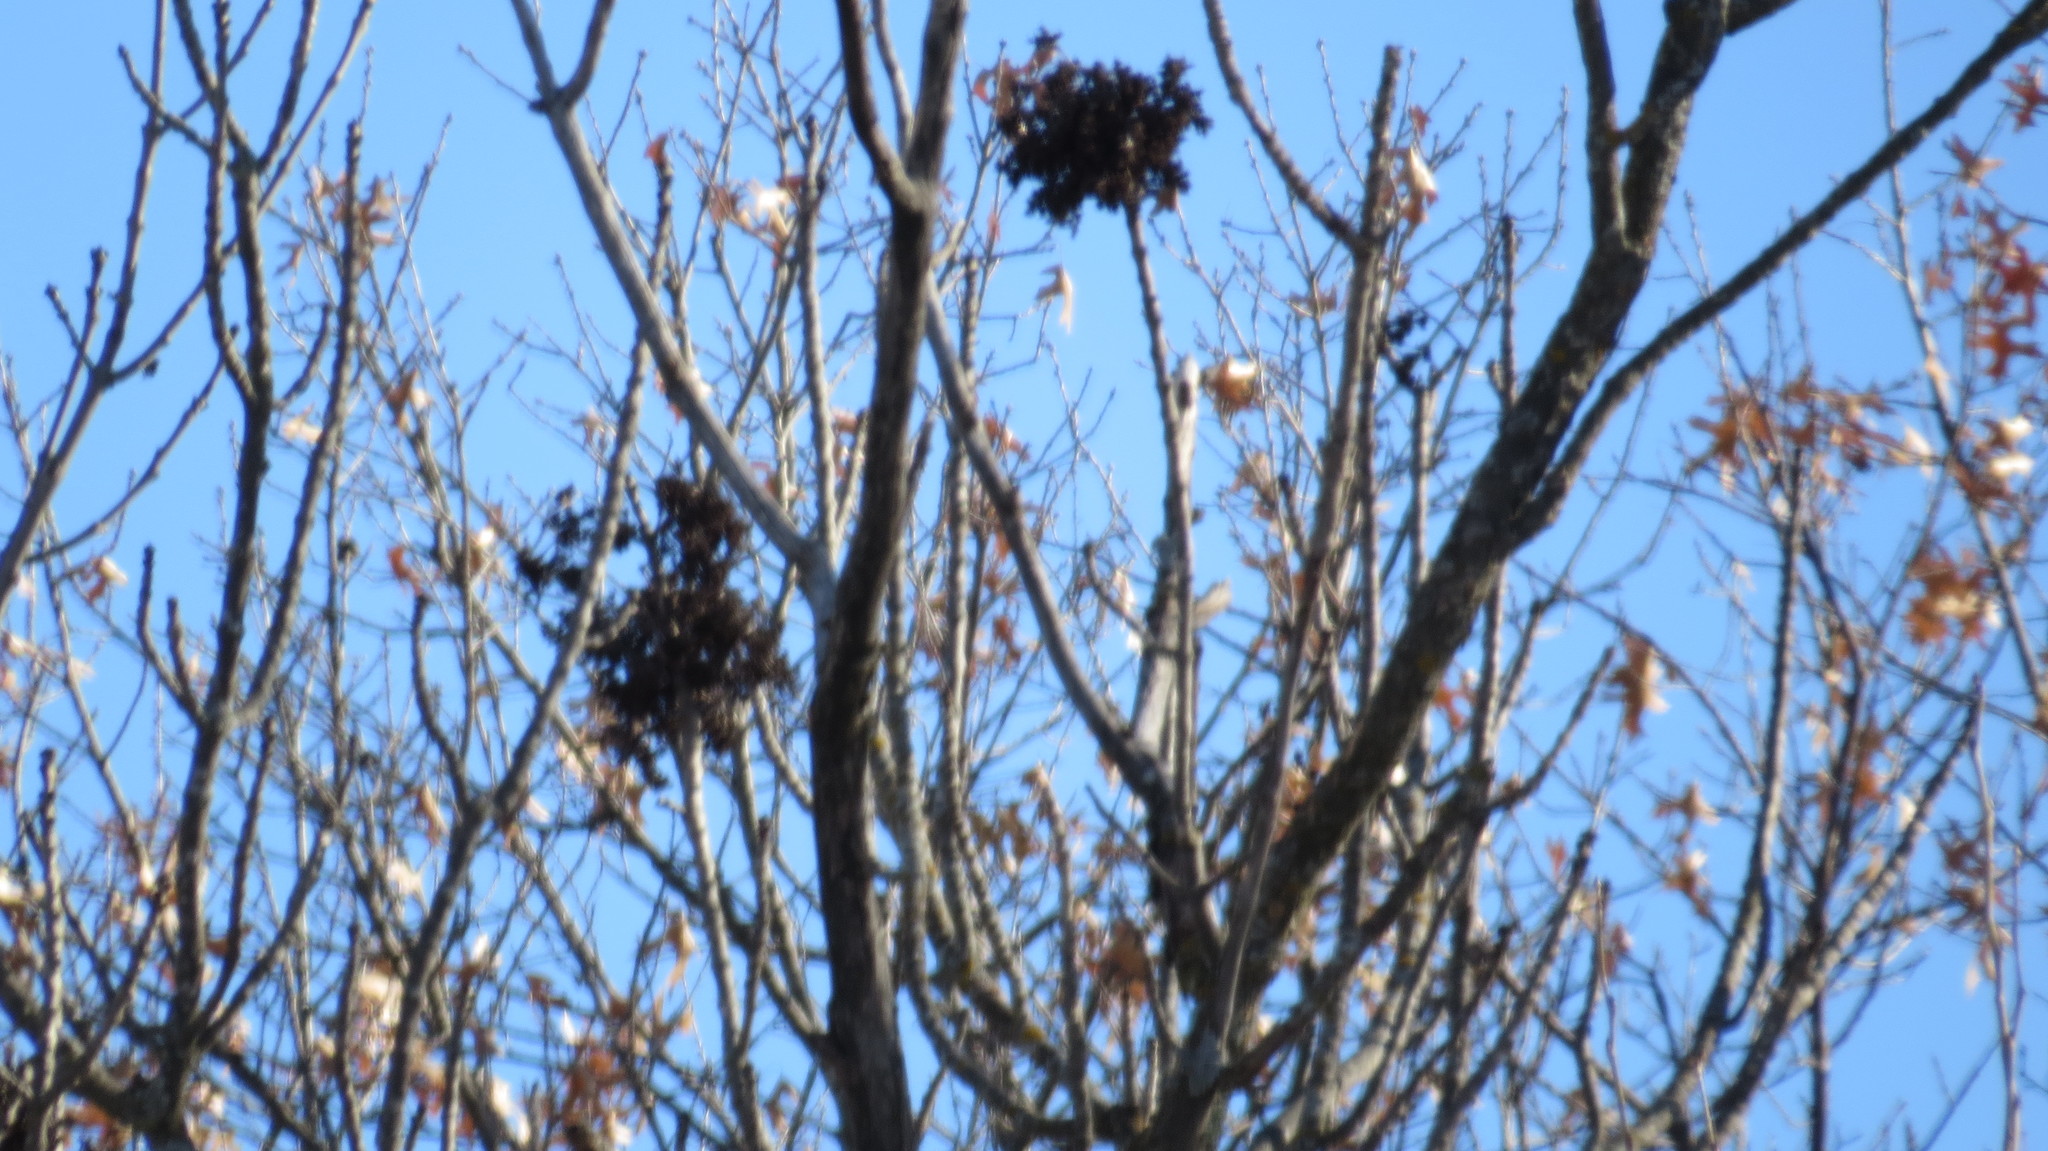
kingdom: Animalia
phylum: Arthropoda
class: Arachnida
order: Trombidiformes
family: Eriophyidae
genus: Aceria
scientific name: Aceria fraxiniflora
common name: Ash flower gall mite
